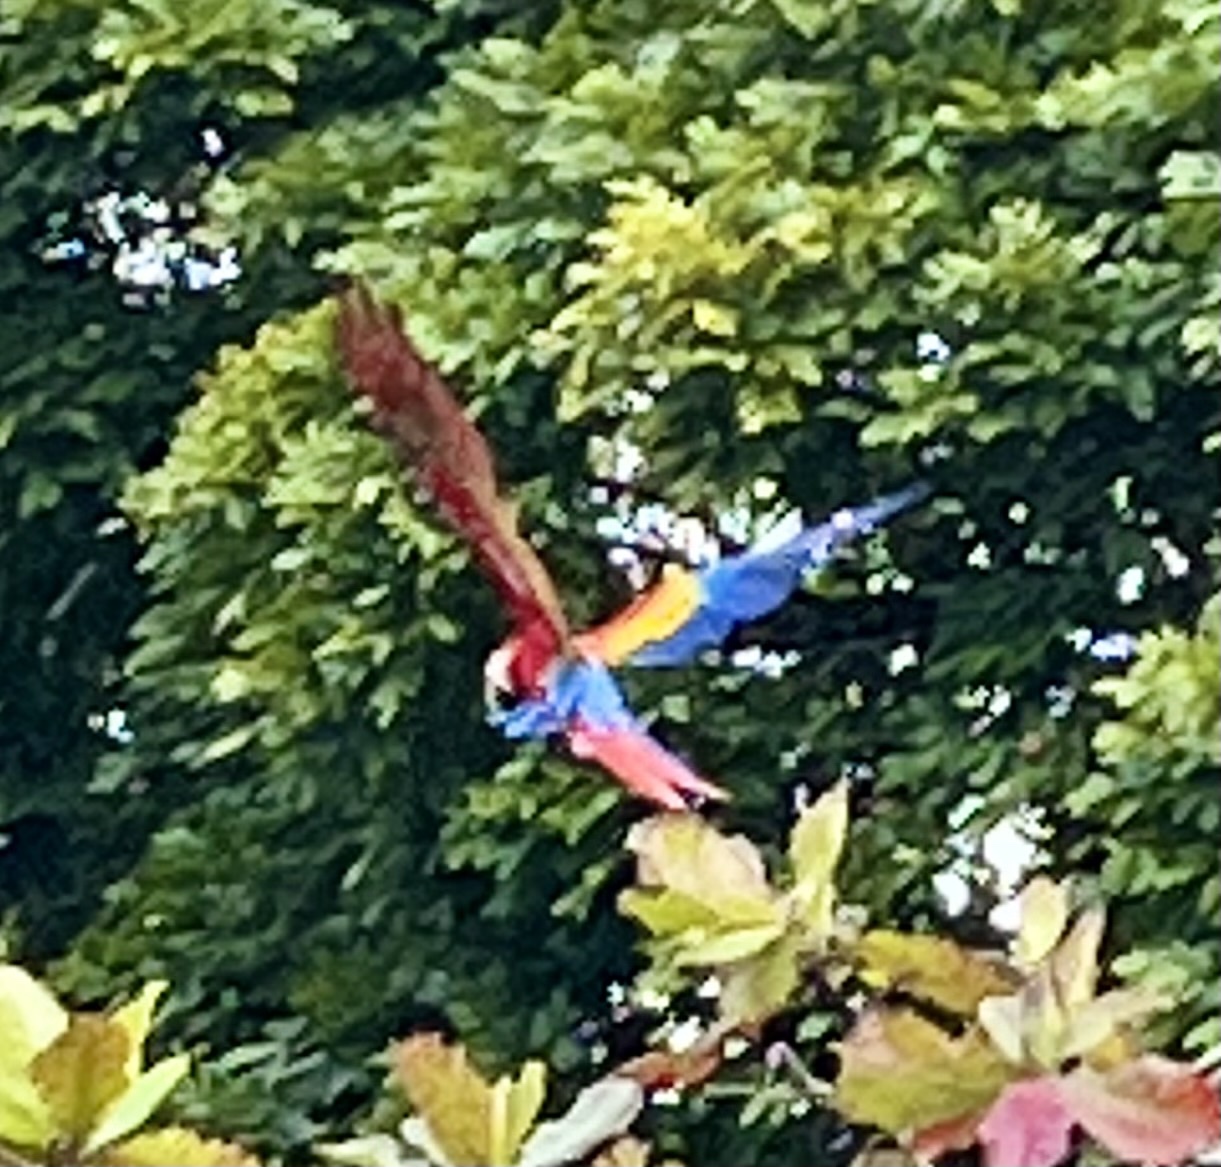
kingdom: Animalia
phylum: Chordata
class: Aves
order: Psittaciformes
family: Psittacidae
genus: Ara
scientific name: Ara macao
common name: Scarlet macaw
